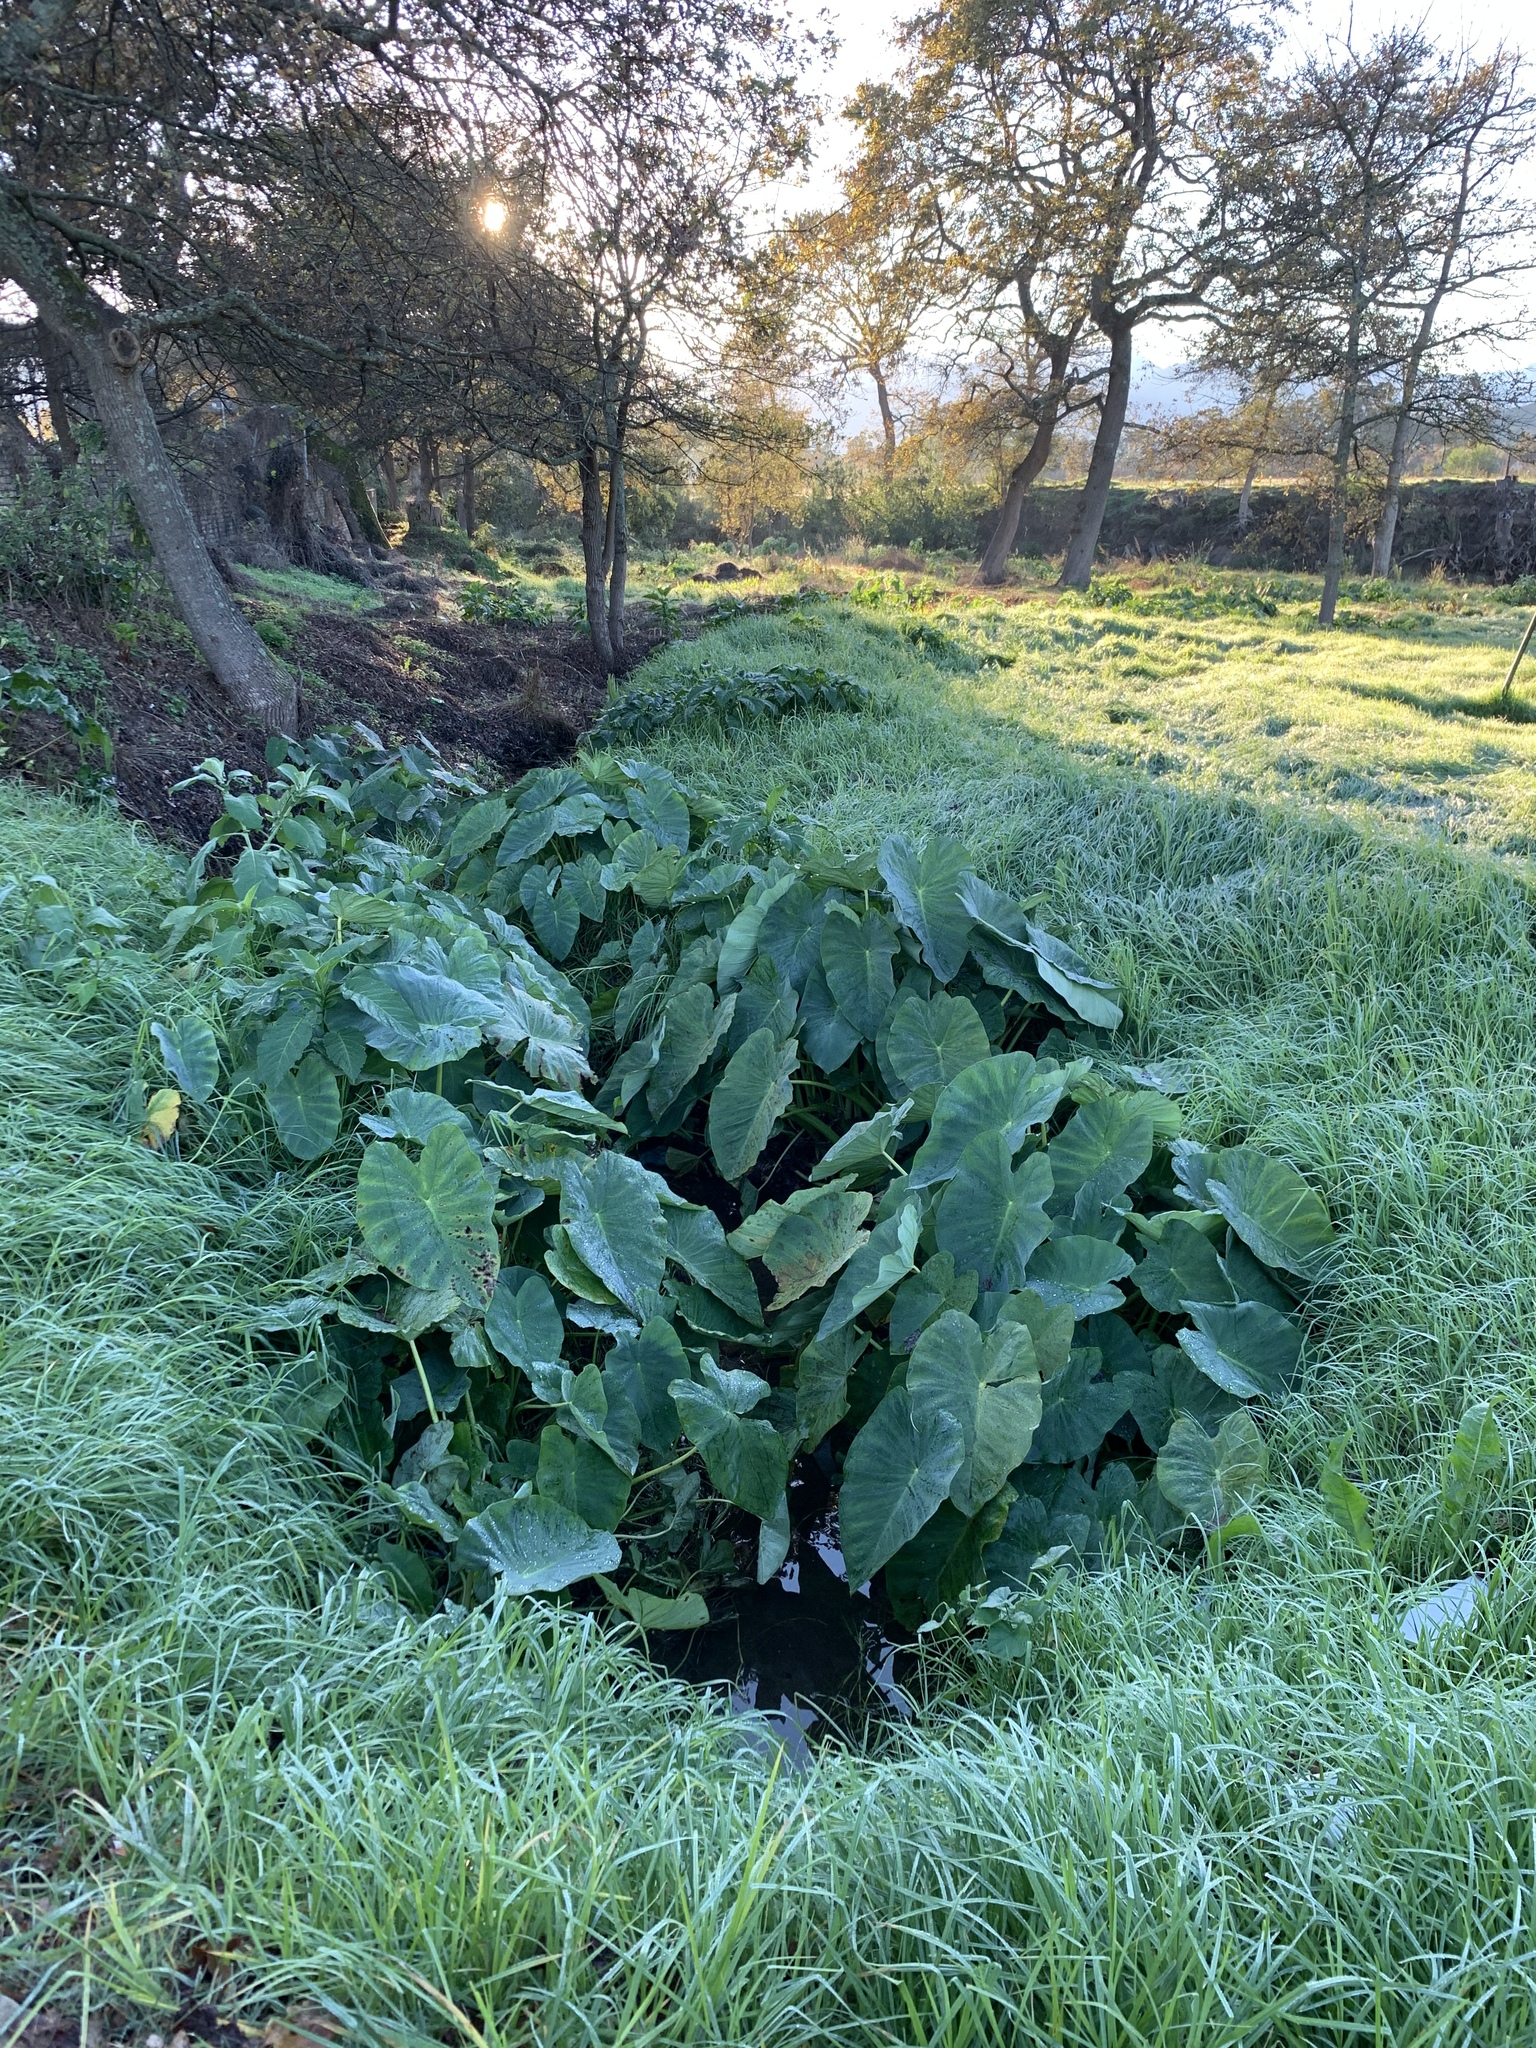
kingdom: Plantae
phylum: Tracheophyta
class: Liliopsida
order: Alismatales
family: Araceae
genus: Colocasia
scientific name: Colocasia esculenta
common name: Taro
